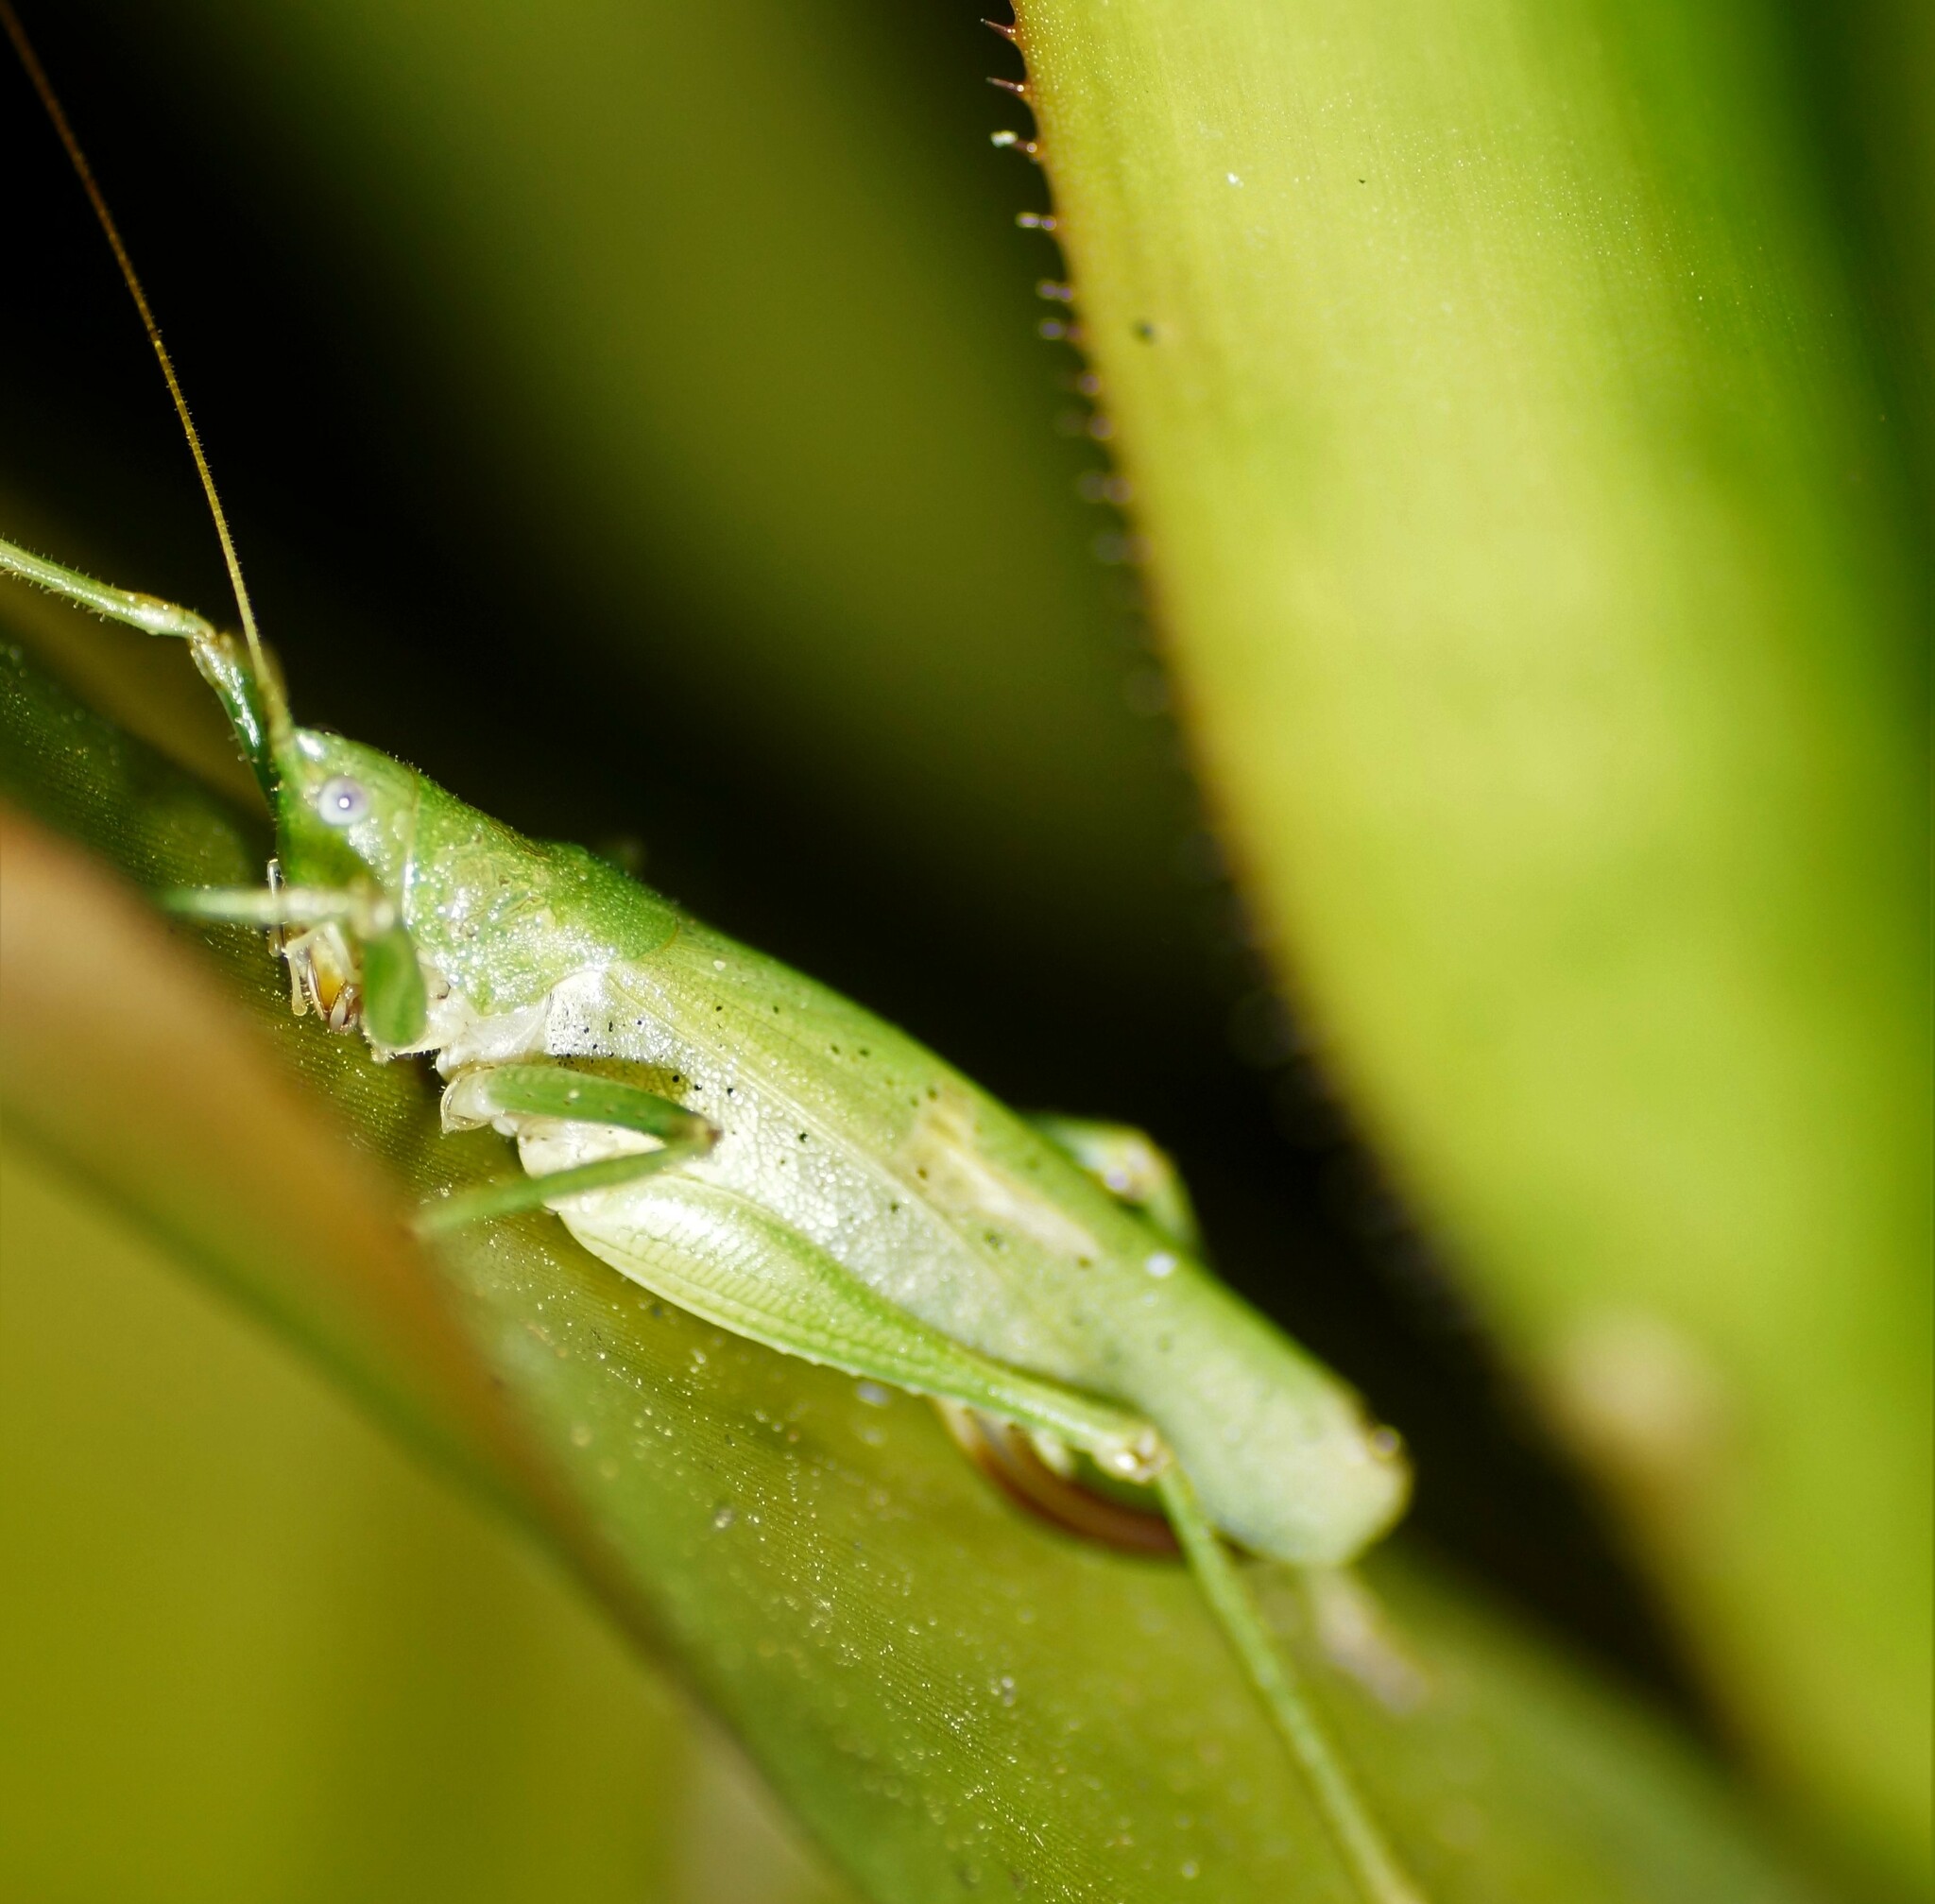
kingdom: Animalia
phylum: Arthropoda
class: Insecta
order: Orthoptera
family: Tettigoniidae
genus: Austrosalomona
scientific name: Austrosalomona destructor
